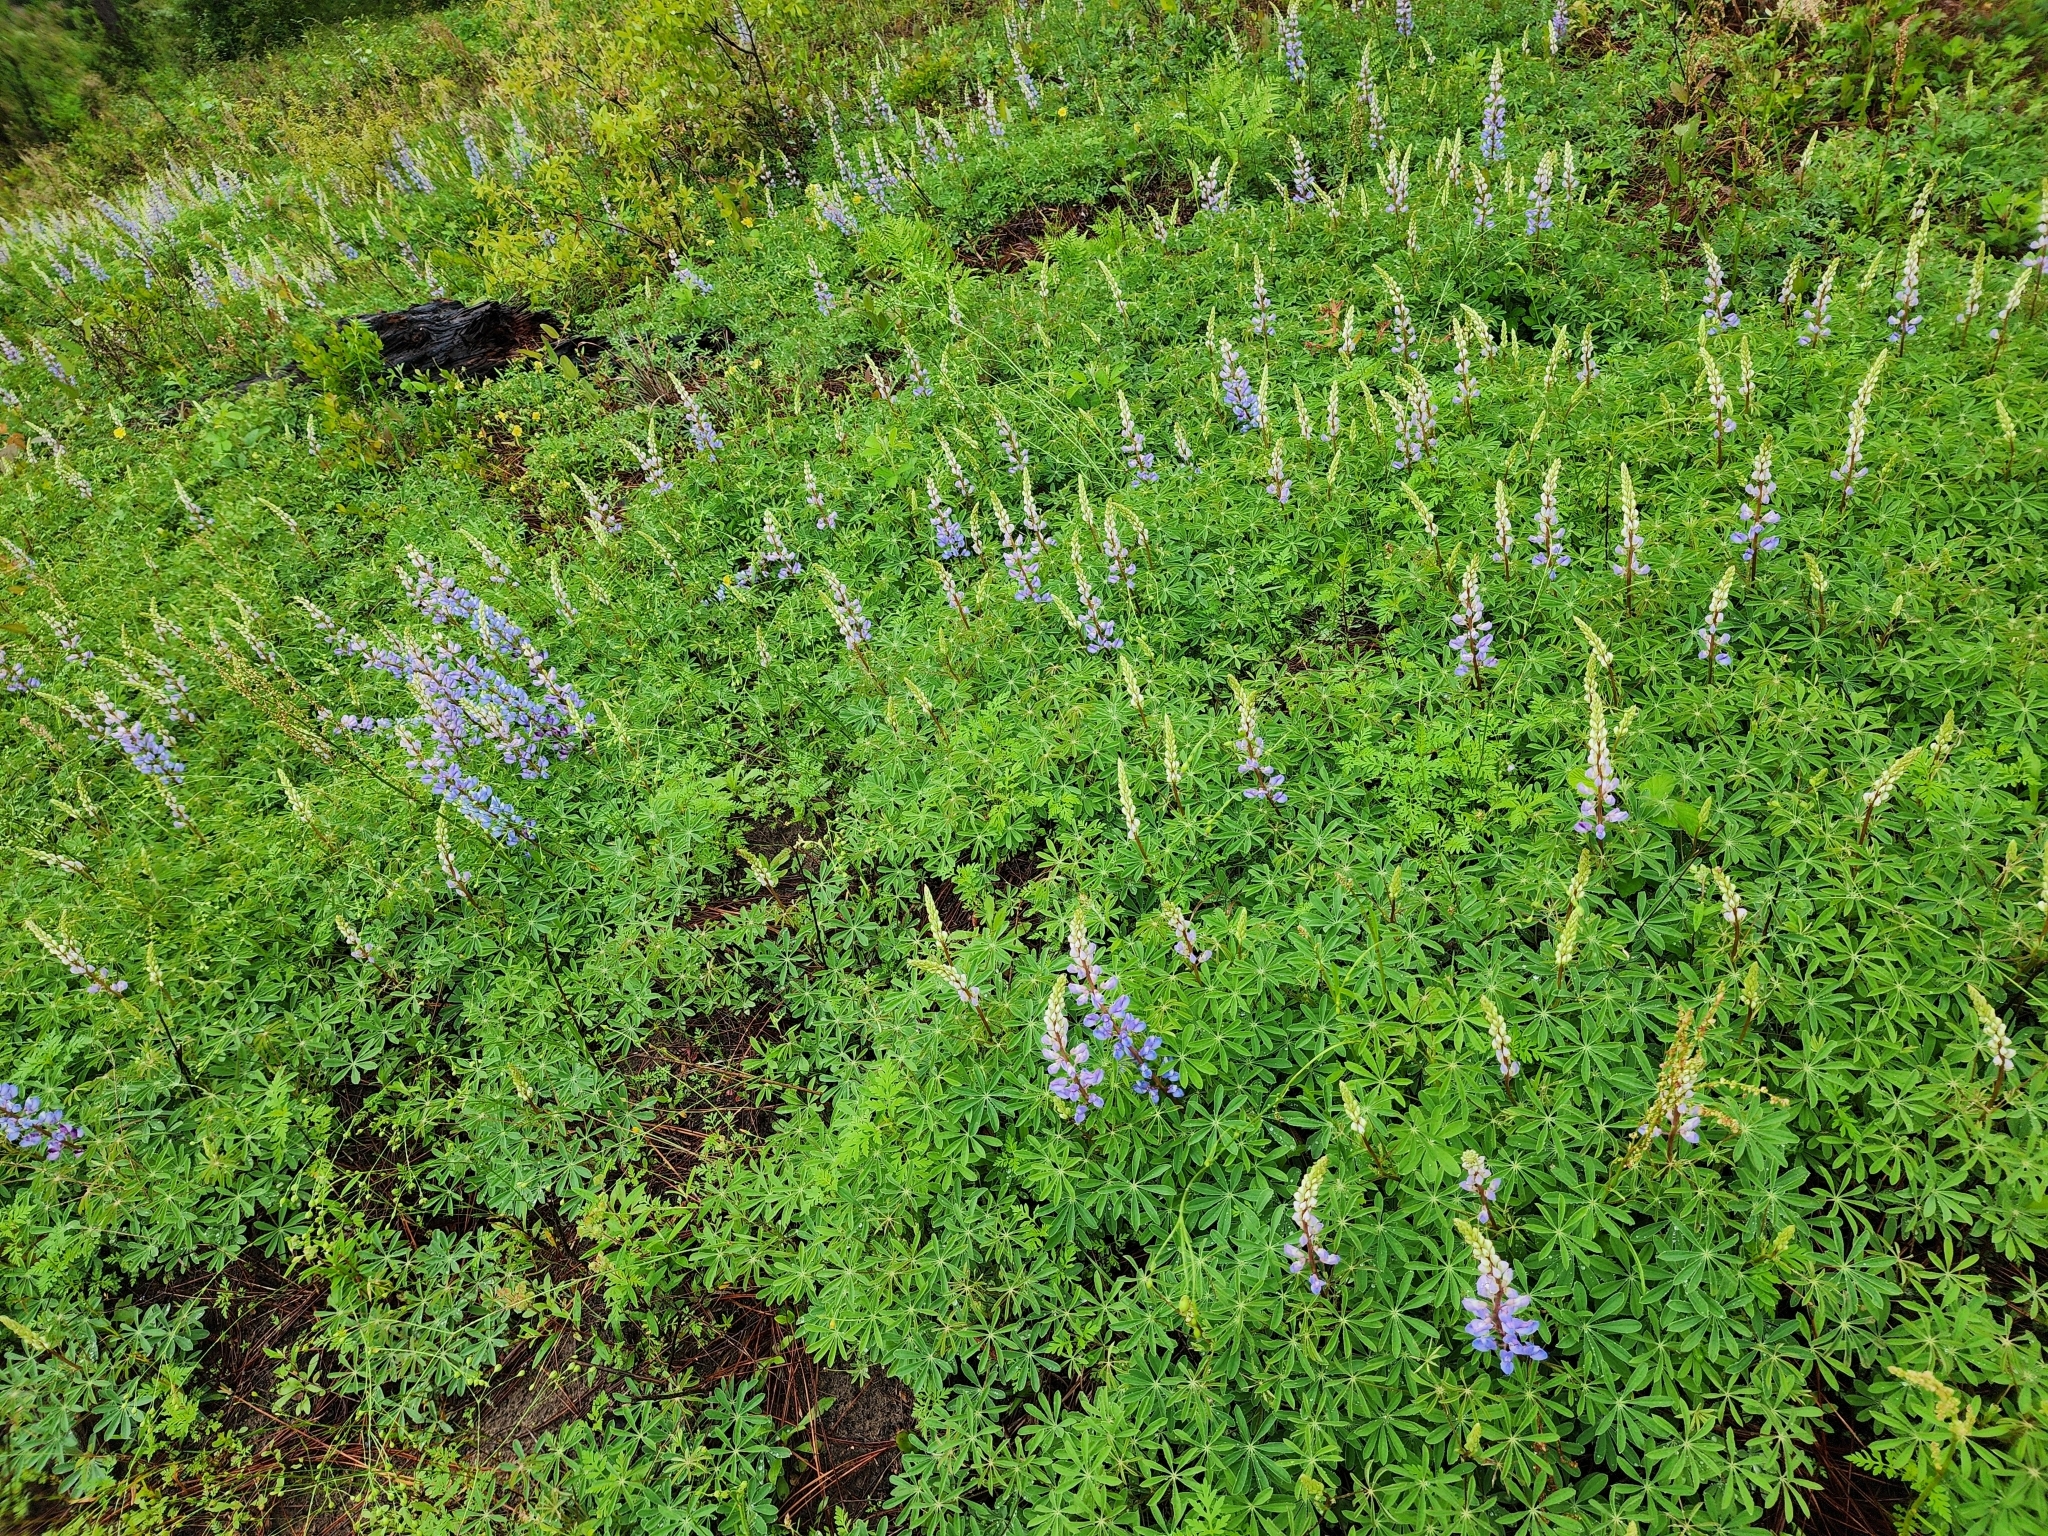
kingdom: Plantae
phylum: Tracheophyta
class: Magnoliopsida
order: Fabales
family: Fabaceae
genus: Lupinus
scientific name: Lupinus perennis
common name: Sundial lupine
